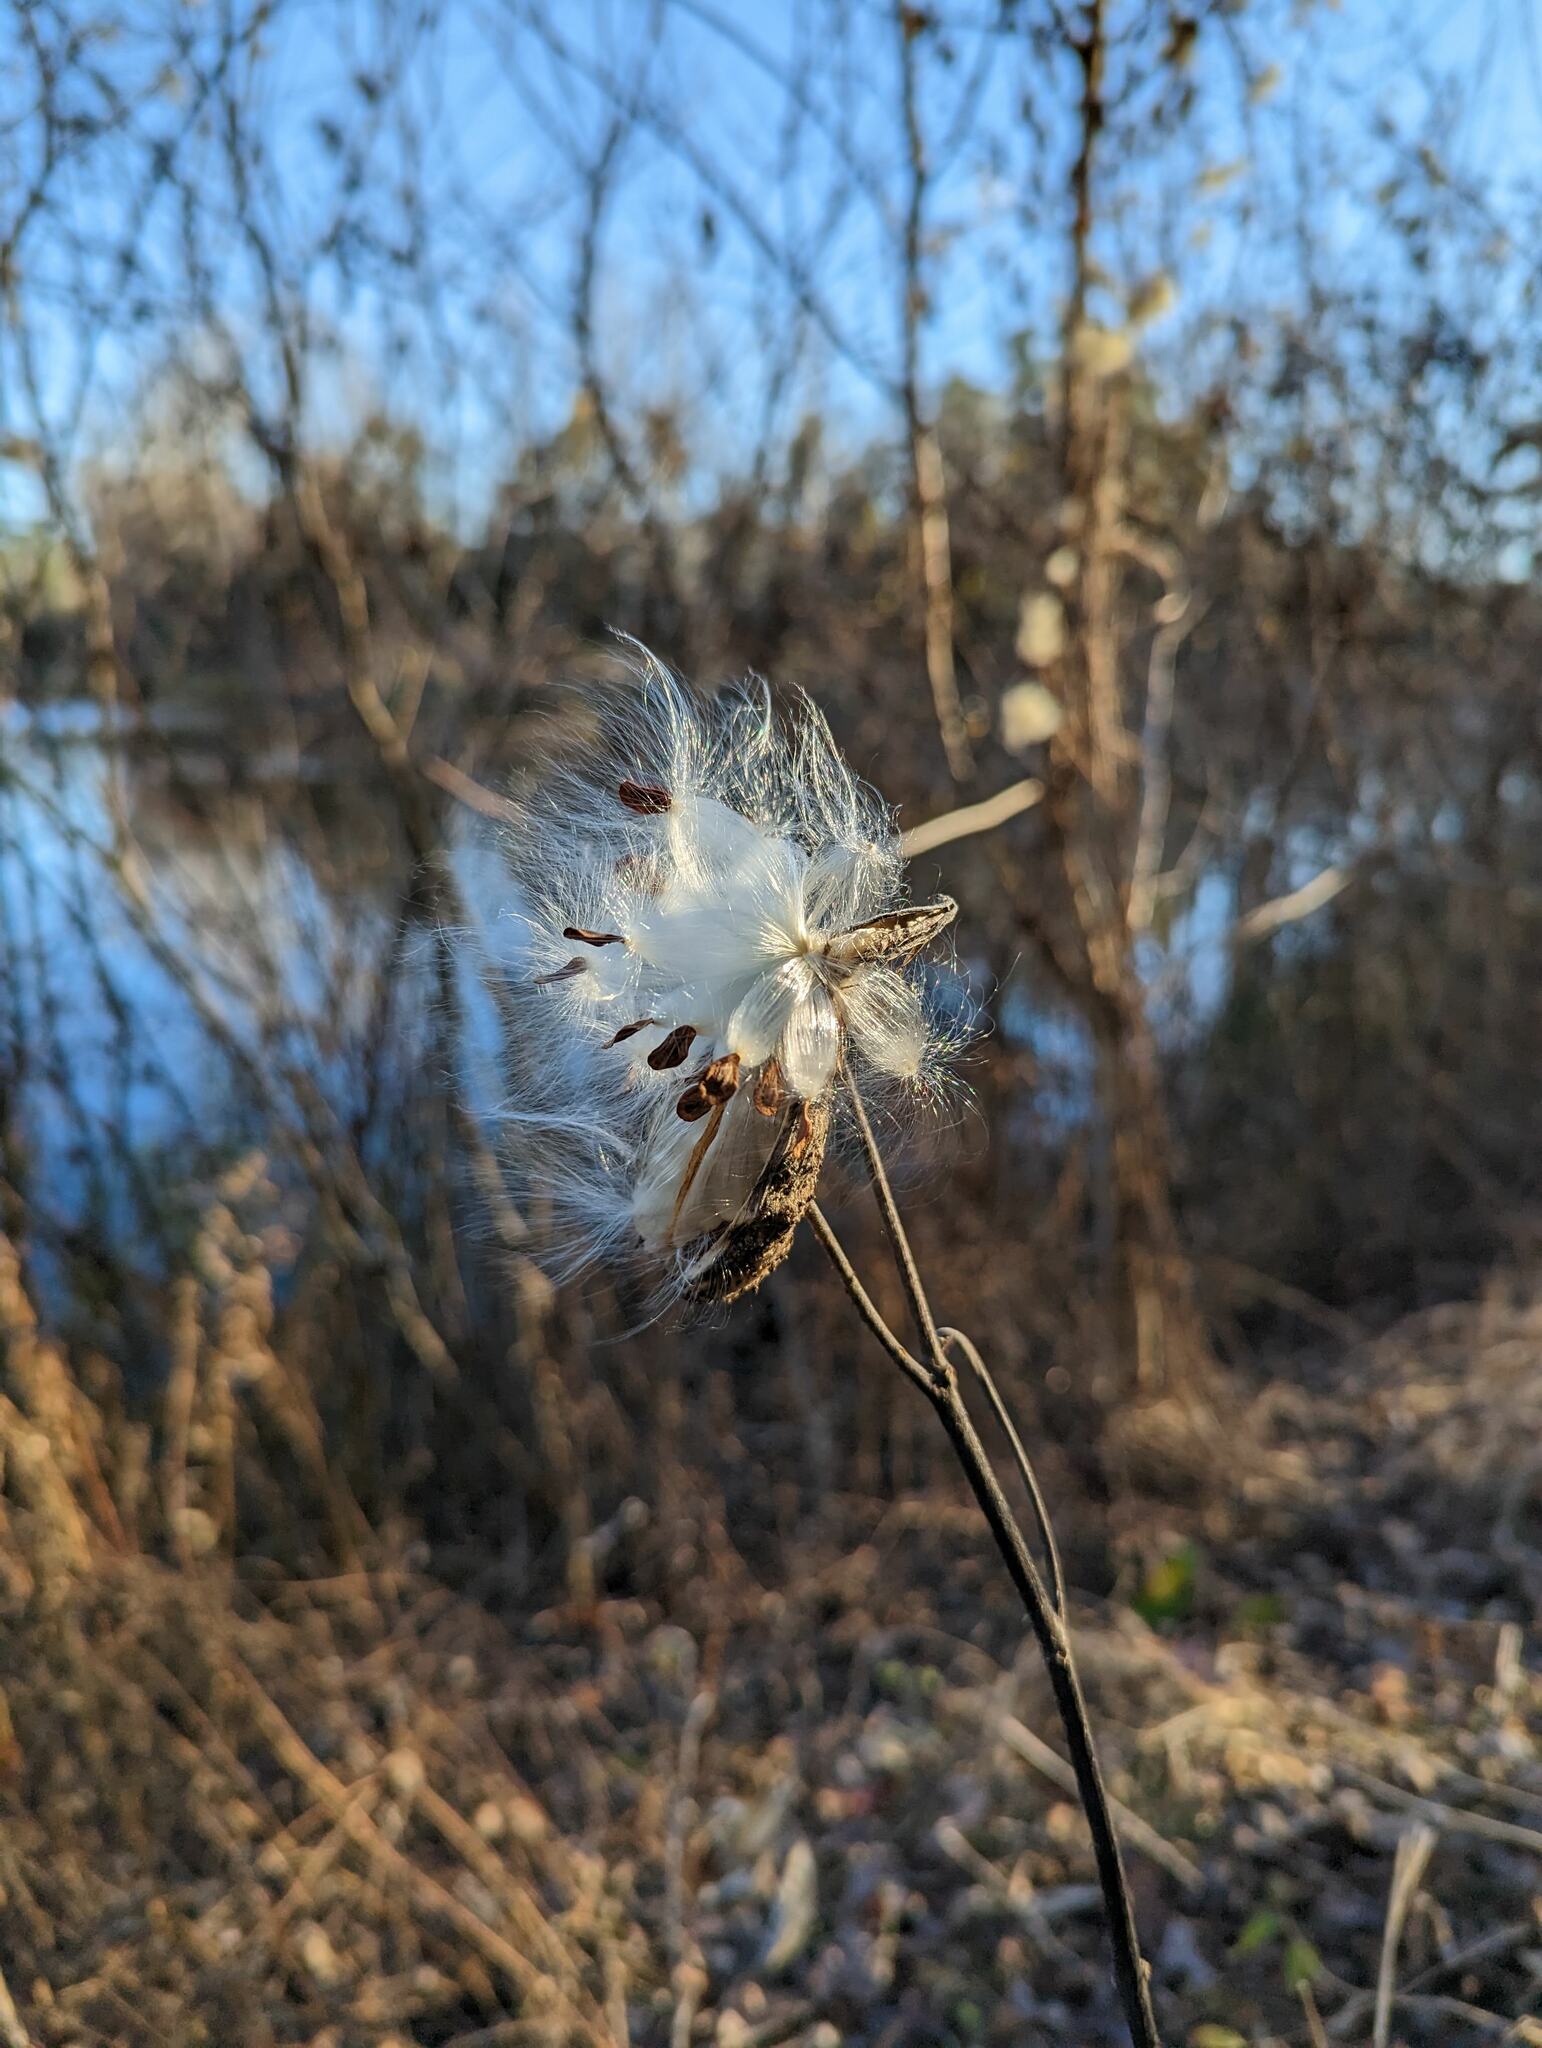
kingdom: Plantae
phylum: Tracheophyta
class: Magnoliopsida
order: Gentianales
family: Apocynaceae
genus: Asclepias
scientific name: Asclepias syriaca
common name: Common milkweed
